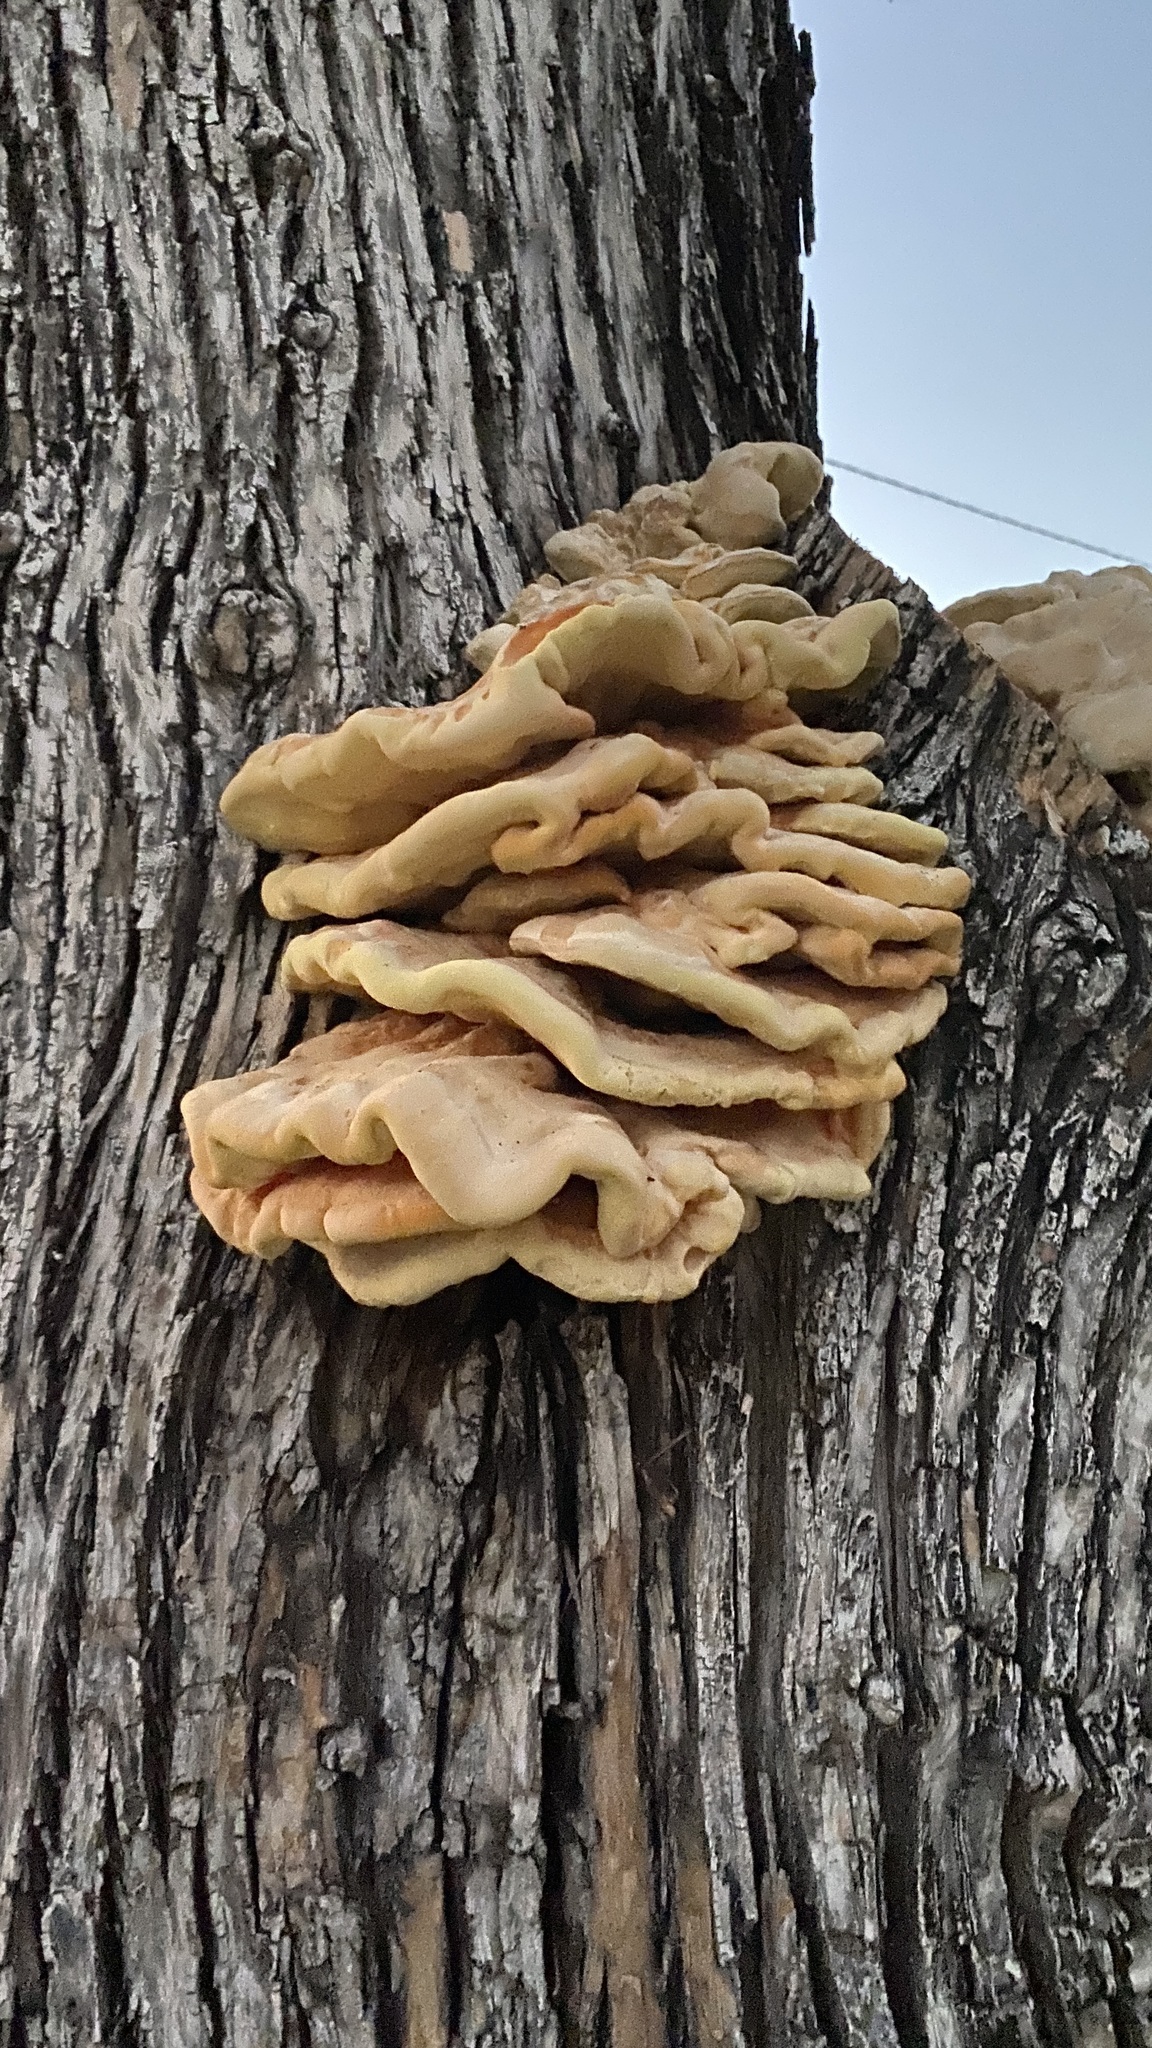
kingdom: Fungi
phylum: Basidiomycota
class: Agaricomycetes
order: Polyporales
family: Laetiporaceae
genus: Laetiporus
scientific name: Laetiporus gilbertsonii
